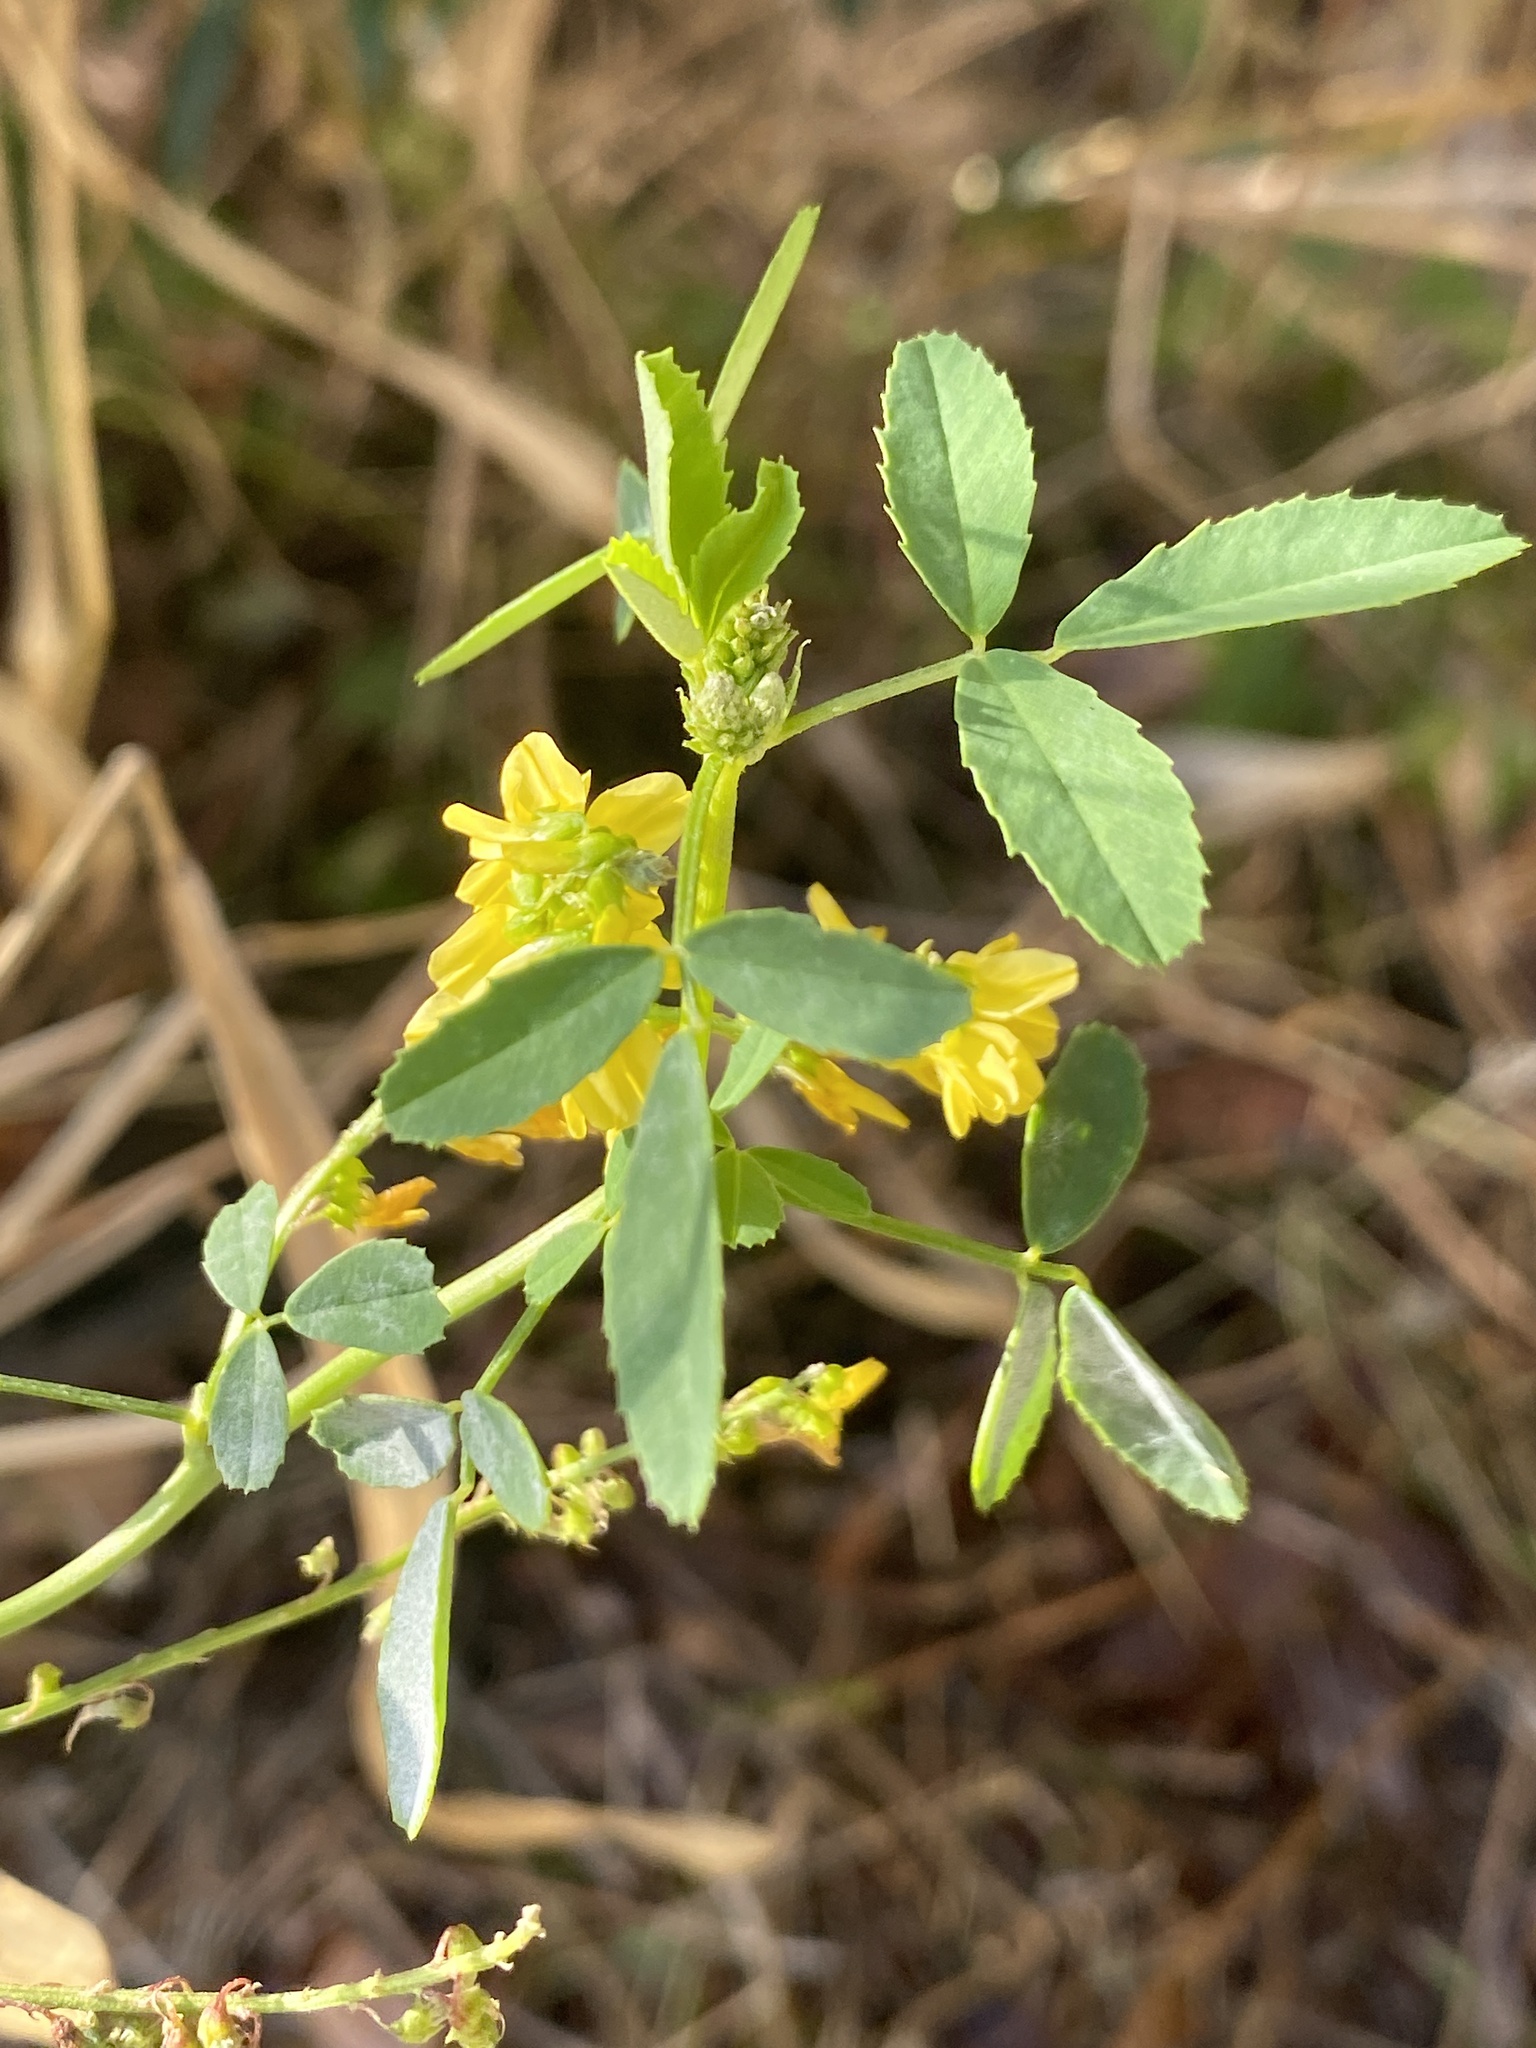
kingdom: Plantae
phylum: Tracheophyta
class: Magnoliopsida
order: Fabales
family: Fabaceae
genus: Melilotus
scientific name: Melilotus officinalis
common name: Sweetclover
